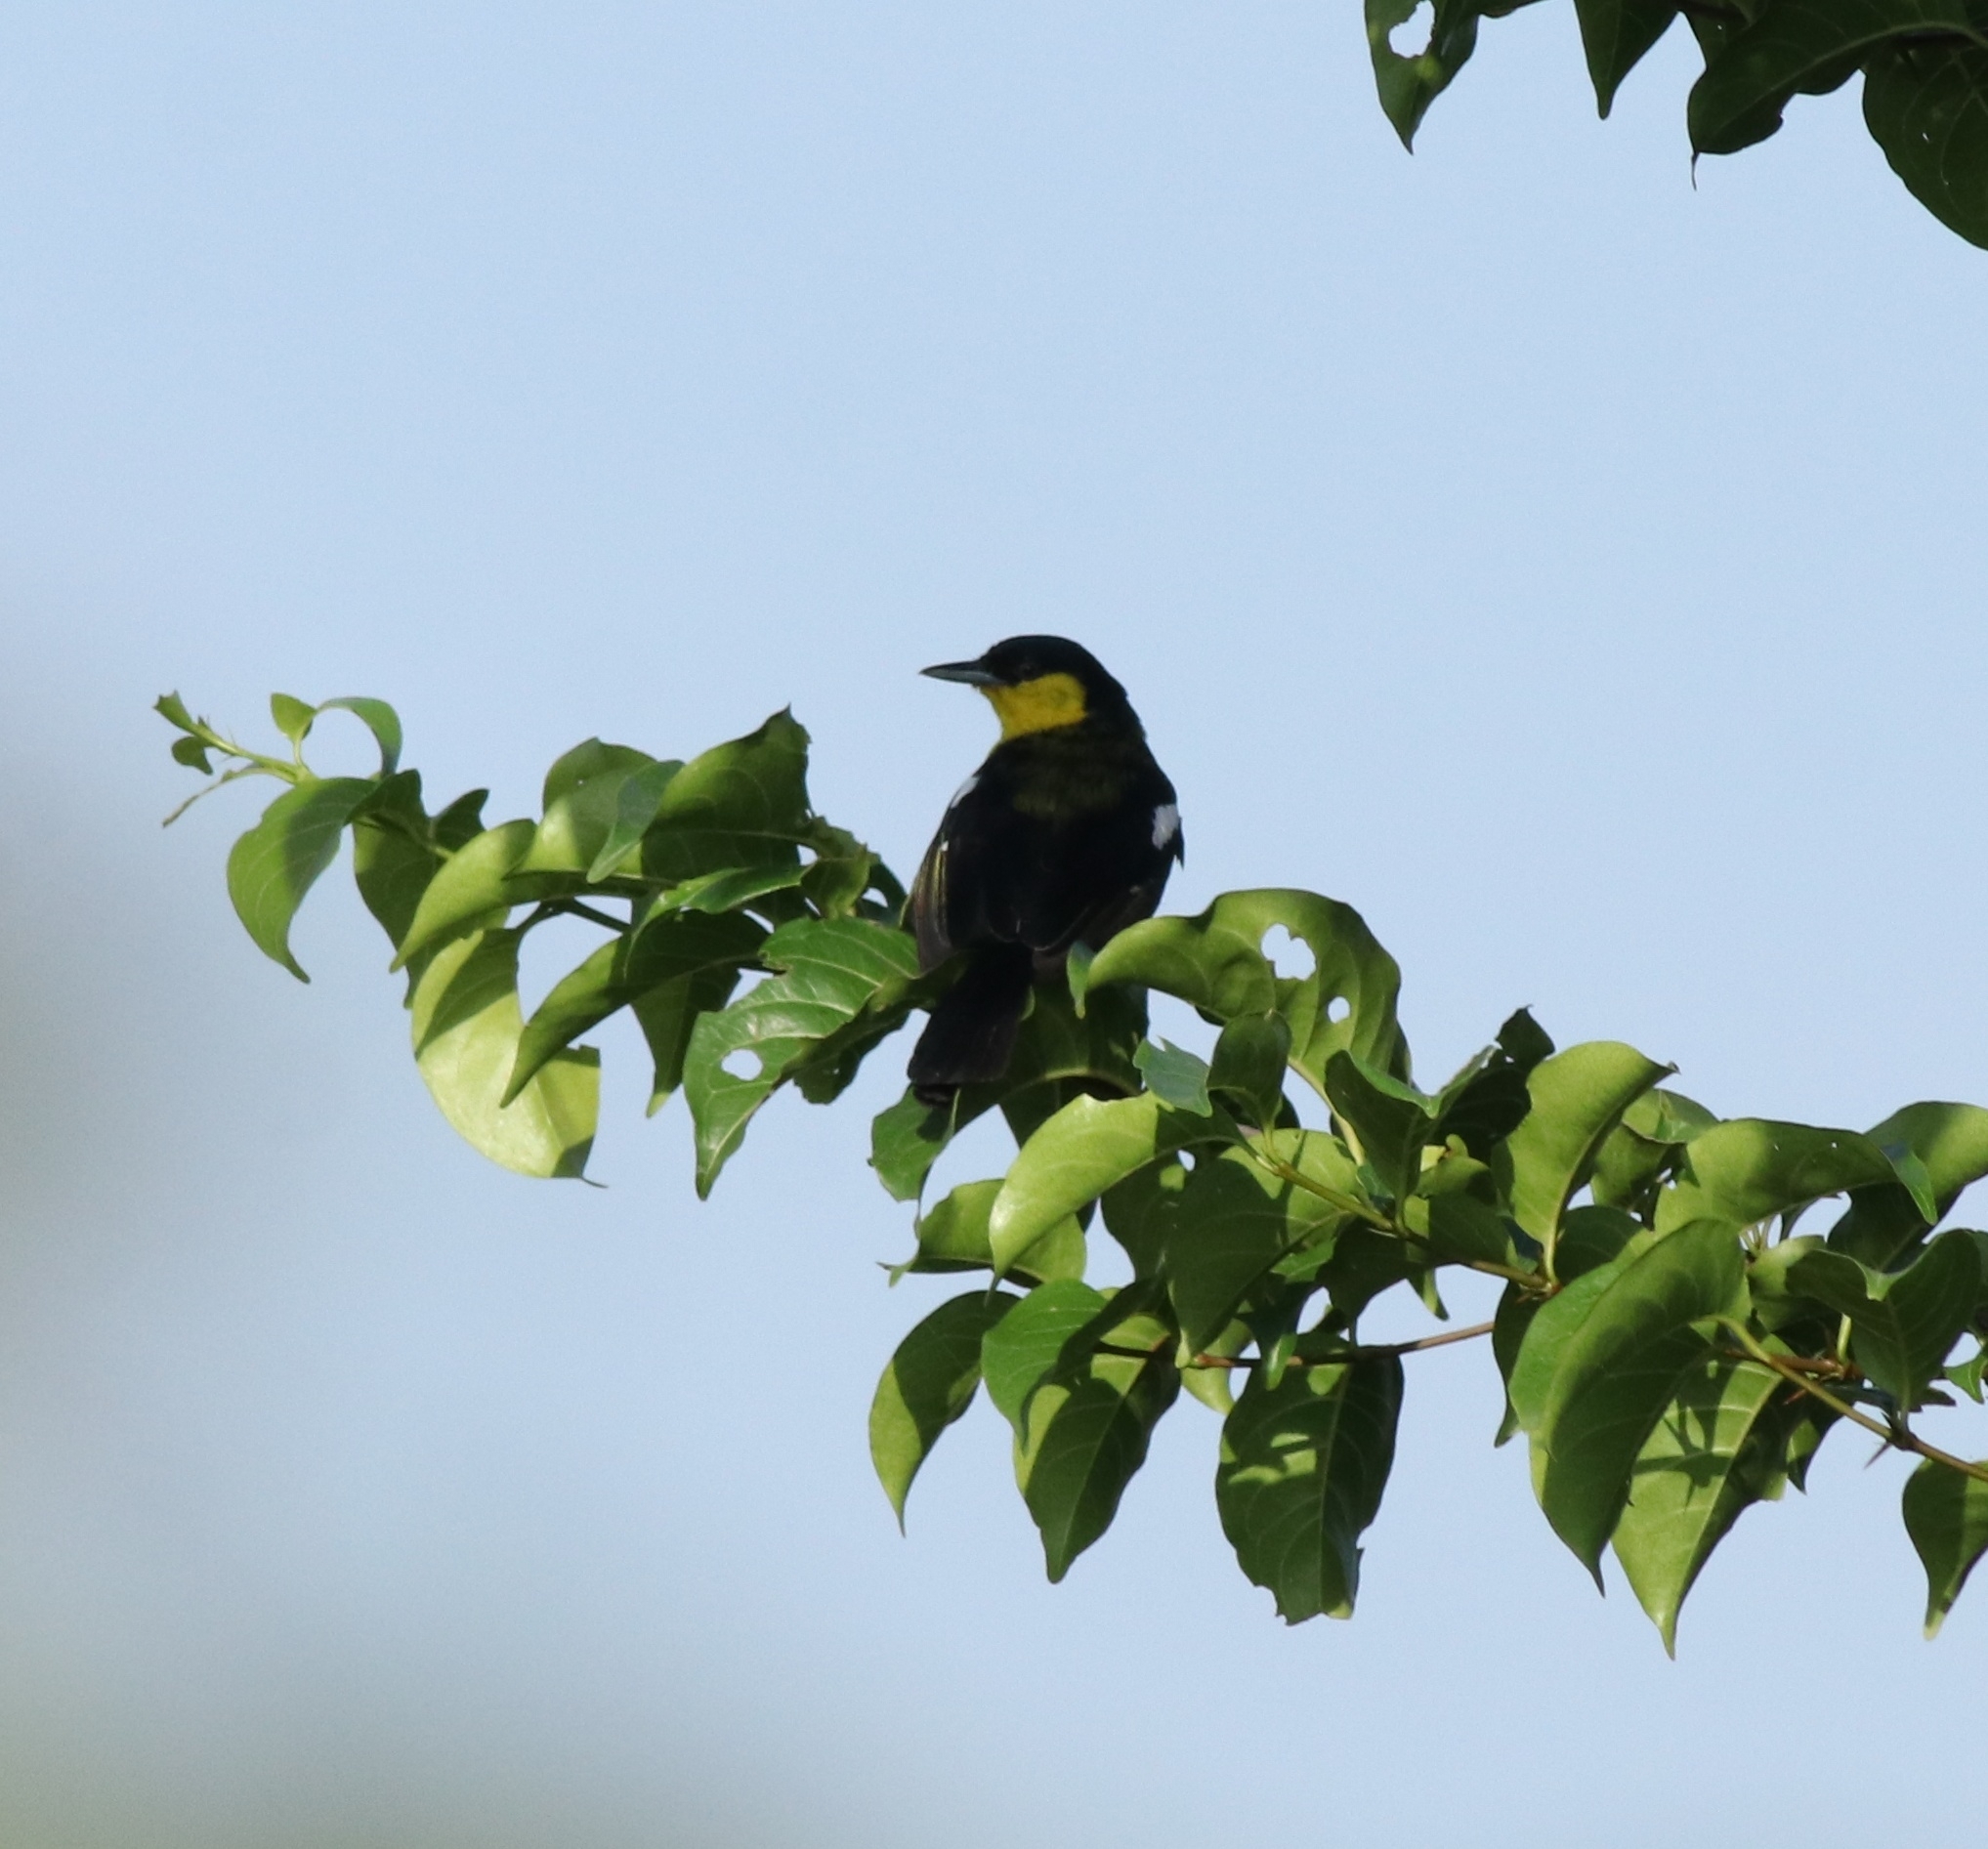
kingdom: Animalia
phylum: Chordata
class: Aves
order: Passeriformes
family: Aegithinidae
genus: Aegithina
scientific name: Aegithina tiphia
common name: Common iora
